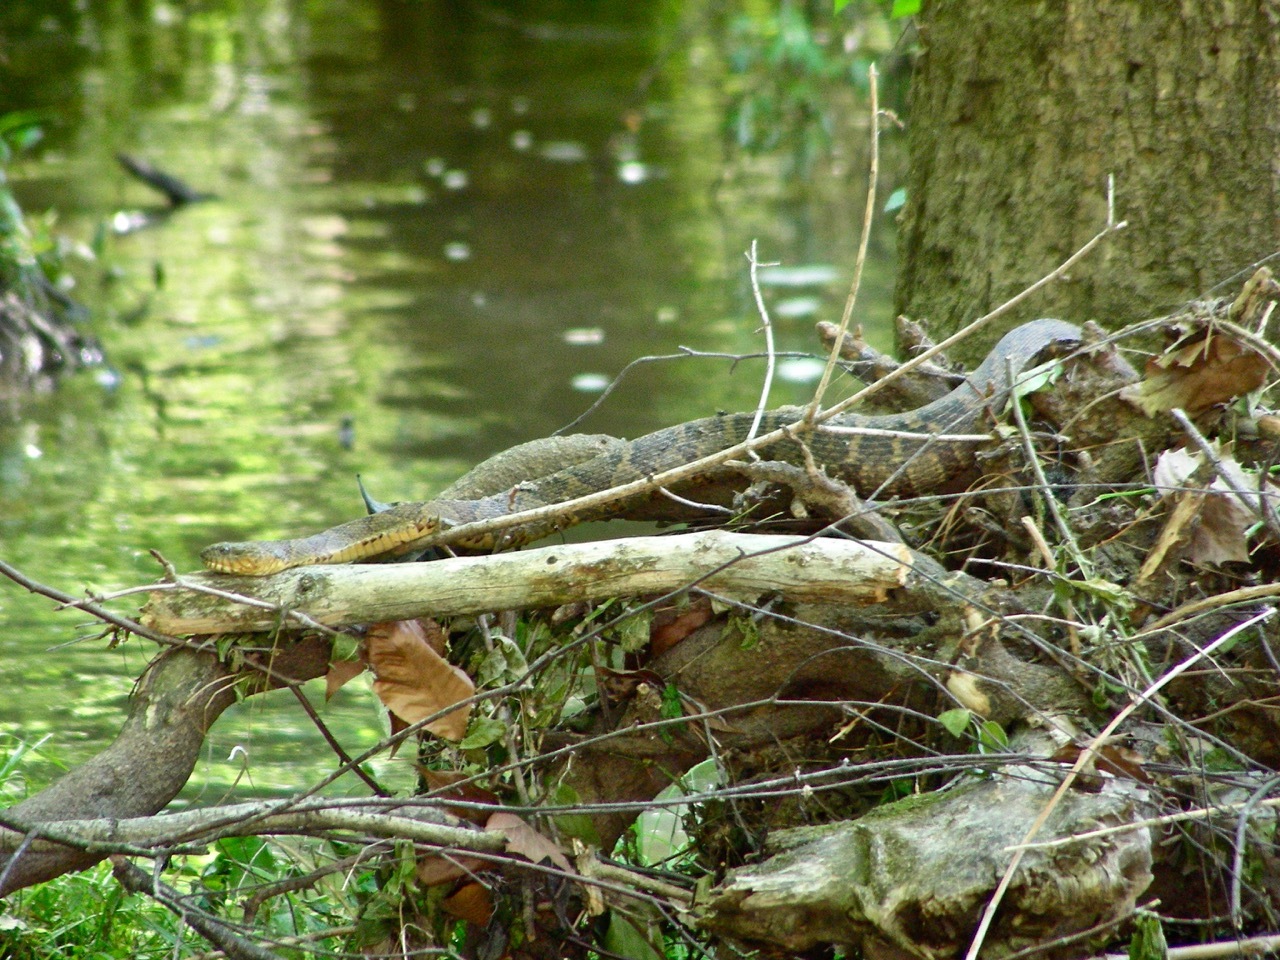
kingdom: Animalia
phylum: Chordata
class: Squamata
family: Colubridae
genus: Nerodia
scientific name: Nerodia sipedon
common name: Northern water snake
